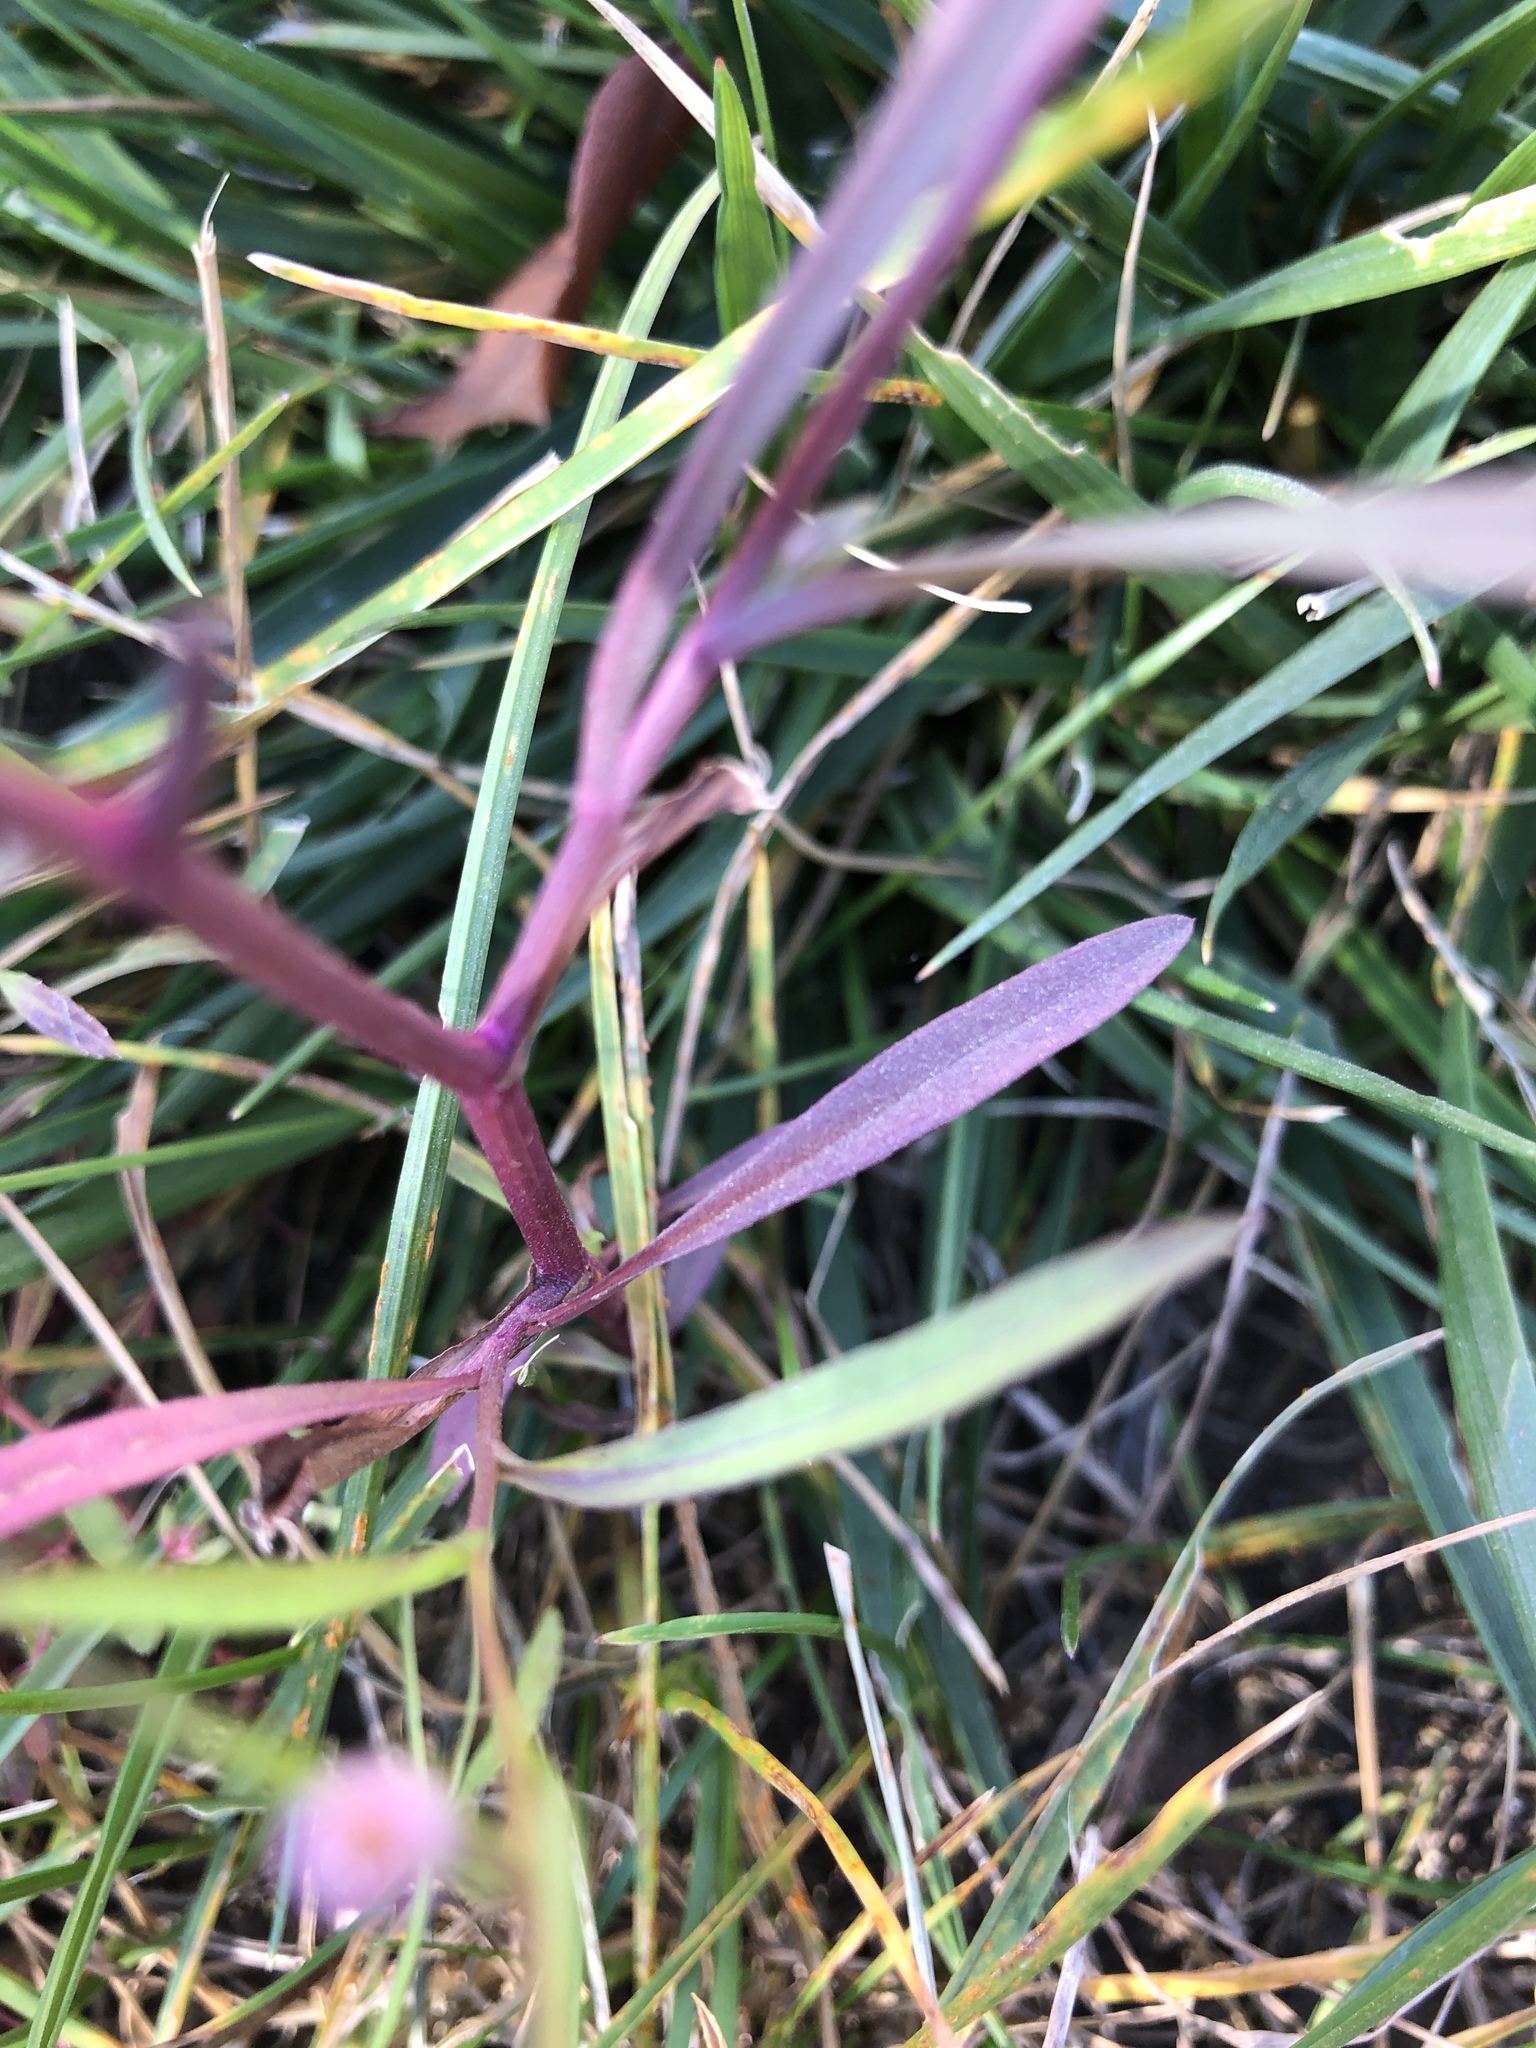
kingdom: Plantae
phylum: Tracheophyta
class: Magnoliopsida
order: Asterales
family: Asteraceae
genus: Symphyotrichum
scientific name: Symphyotrichum subulatum
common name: Annual saltmarsh aster
